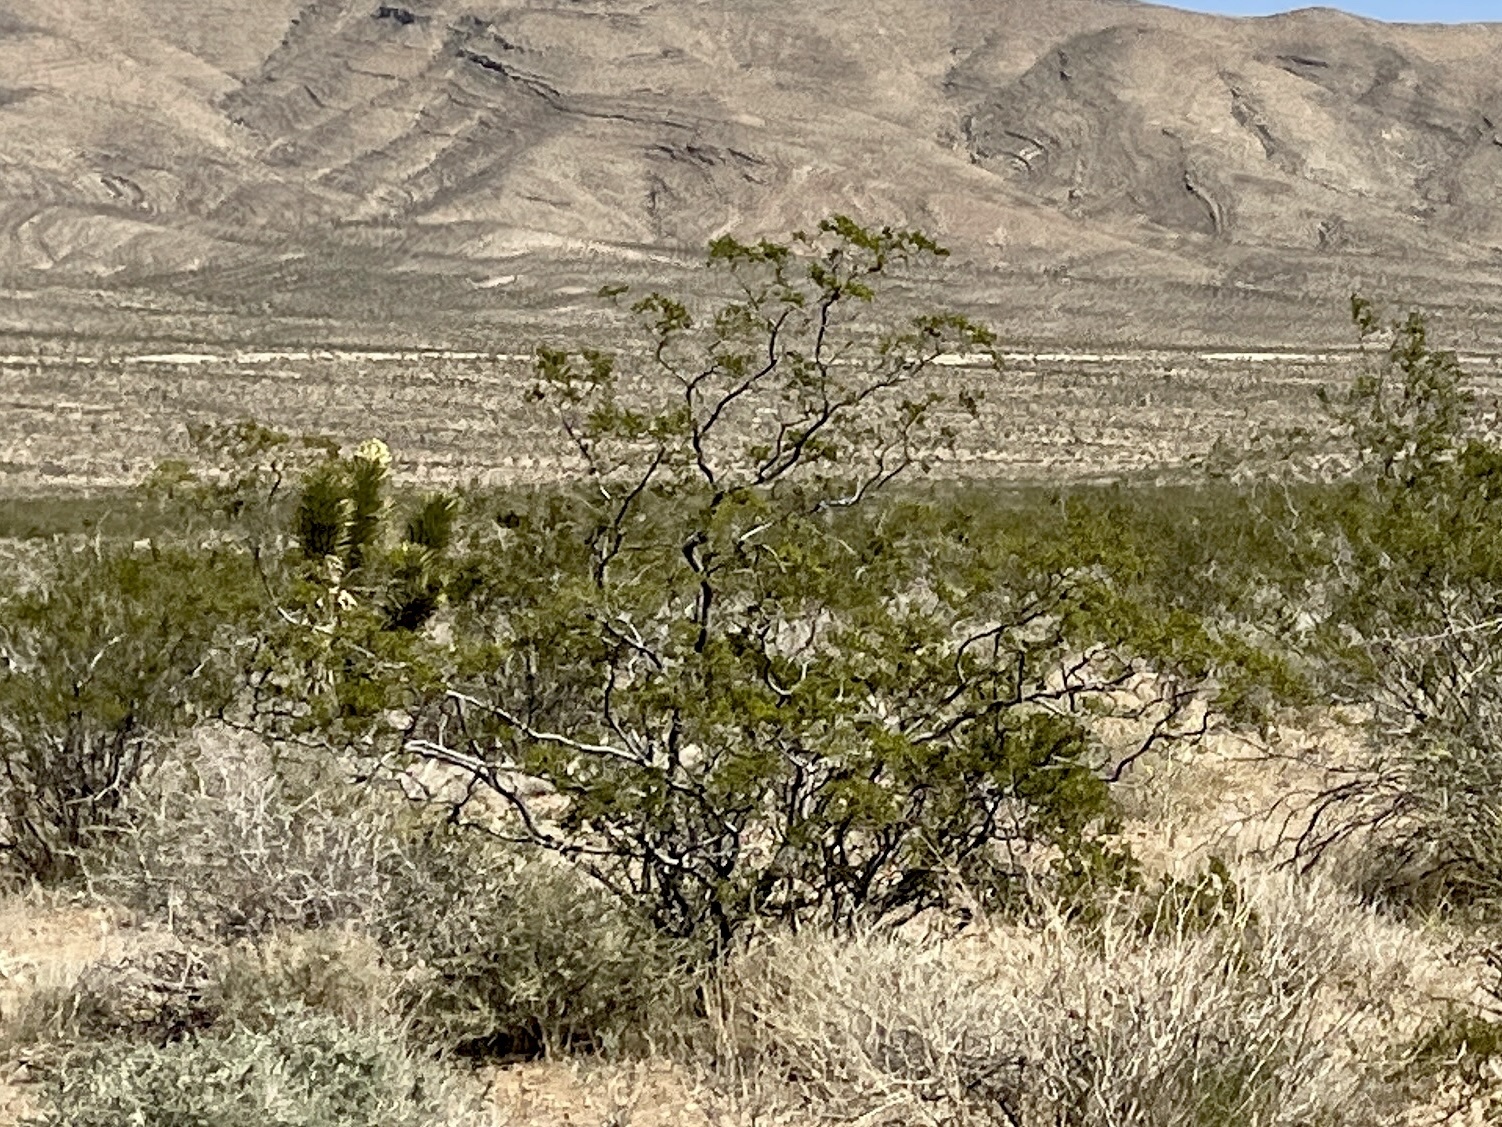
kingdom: Plantae
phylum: Tracheophyta
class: Magnoliopsida
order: Zygophyllales
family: Zygophyllaceae
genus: Larrea
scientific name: Larrea tridentata
